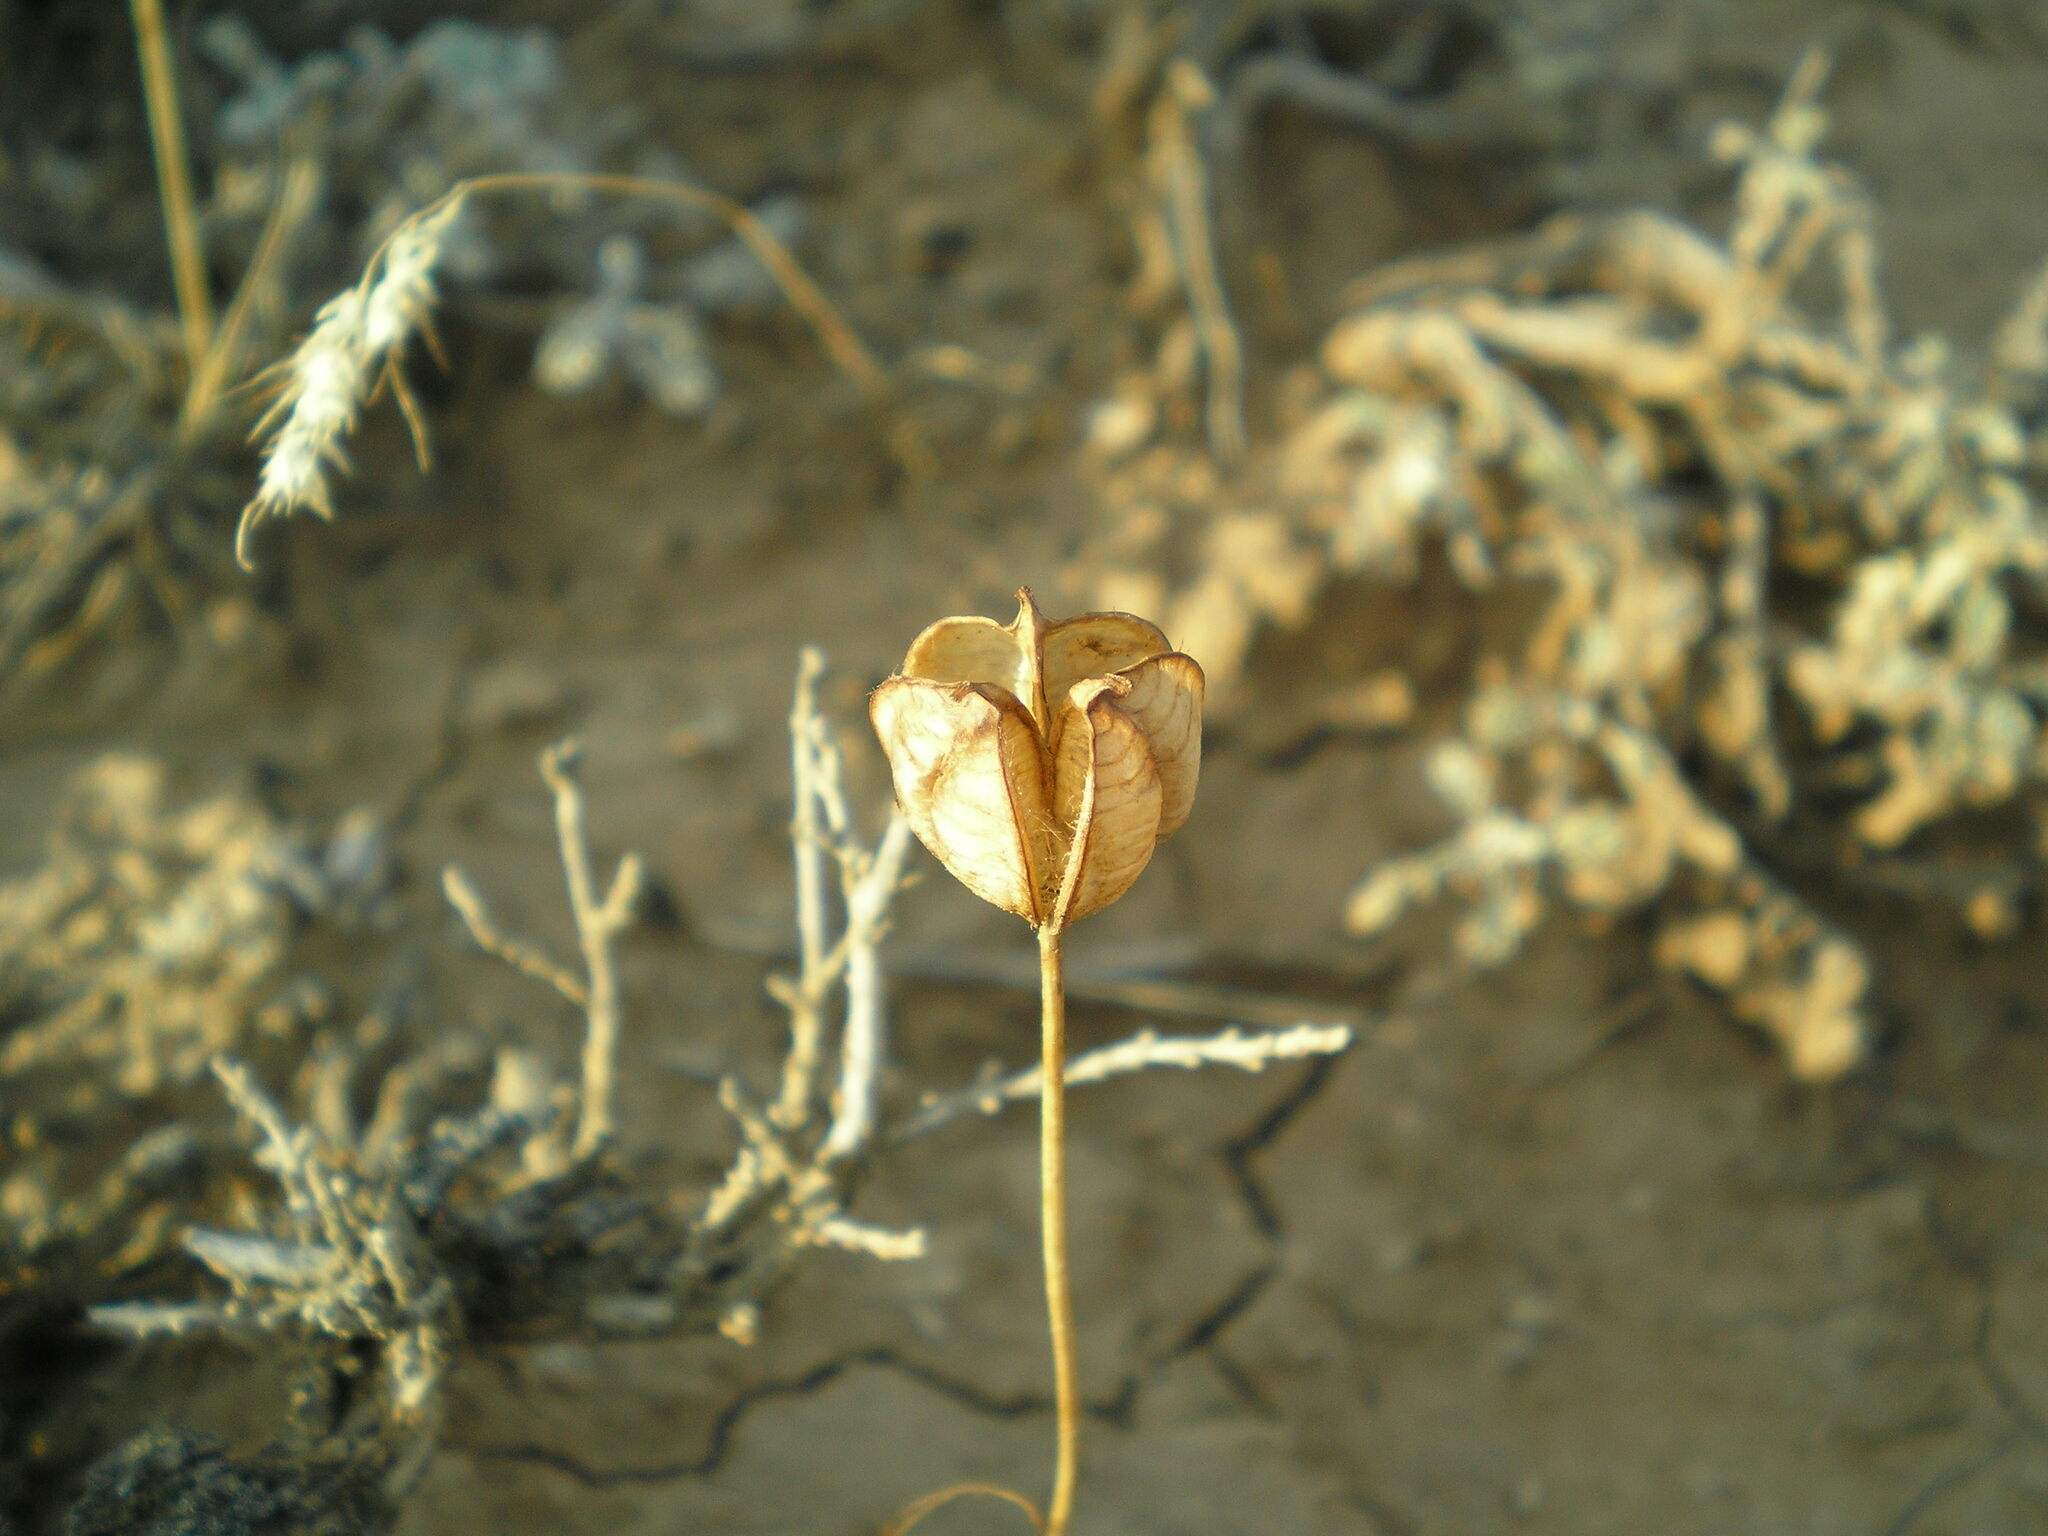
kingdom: Plantae
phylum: Tracheophyta
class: Liliopsida
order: Liliales
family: Liliaceae
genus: Tulipa
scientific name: Tulipa biflora
